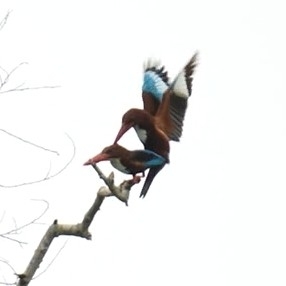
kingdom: Animalia
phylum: Chordata
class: Aves
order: Coraciiformes
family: Alcedinidae
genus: Halcyon
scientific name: Halcyon smyrnensis
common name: White-throated kingfisher
